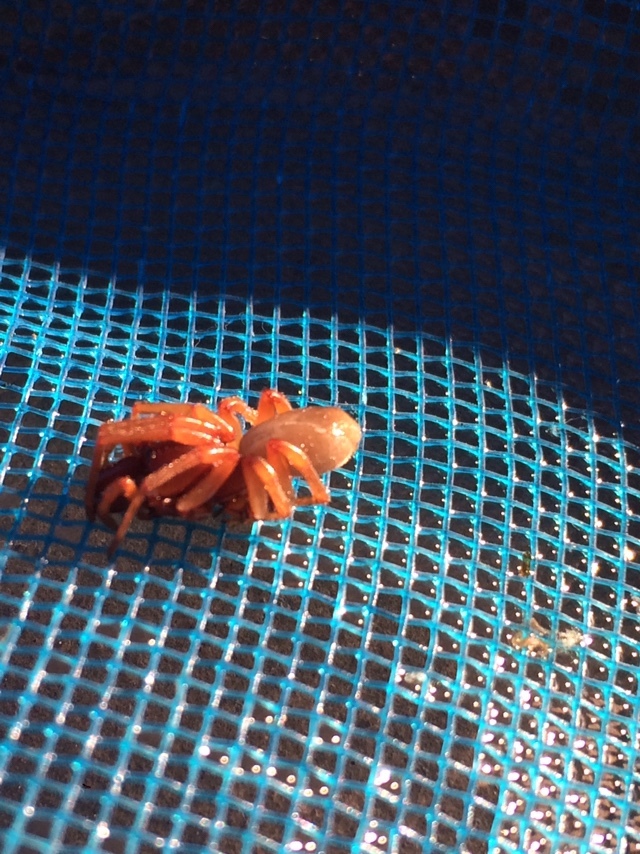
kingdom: Animalia
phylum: Arthropoda
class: Arachnida
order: Araneae
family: Dysderidae
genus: Dysdera
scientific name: Dysdera crocata
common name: Woodlouse spider
